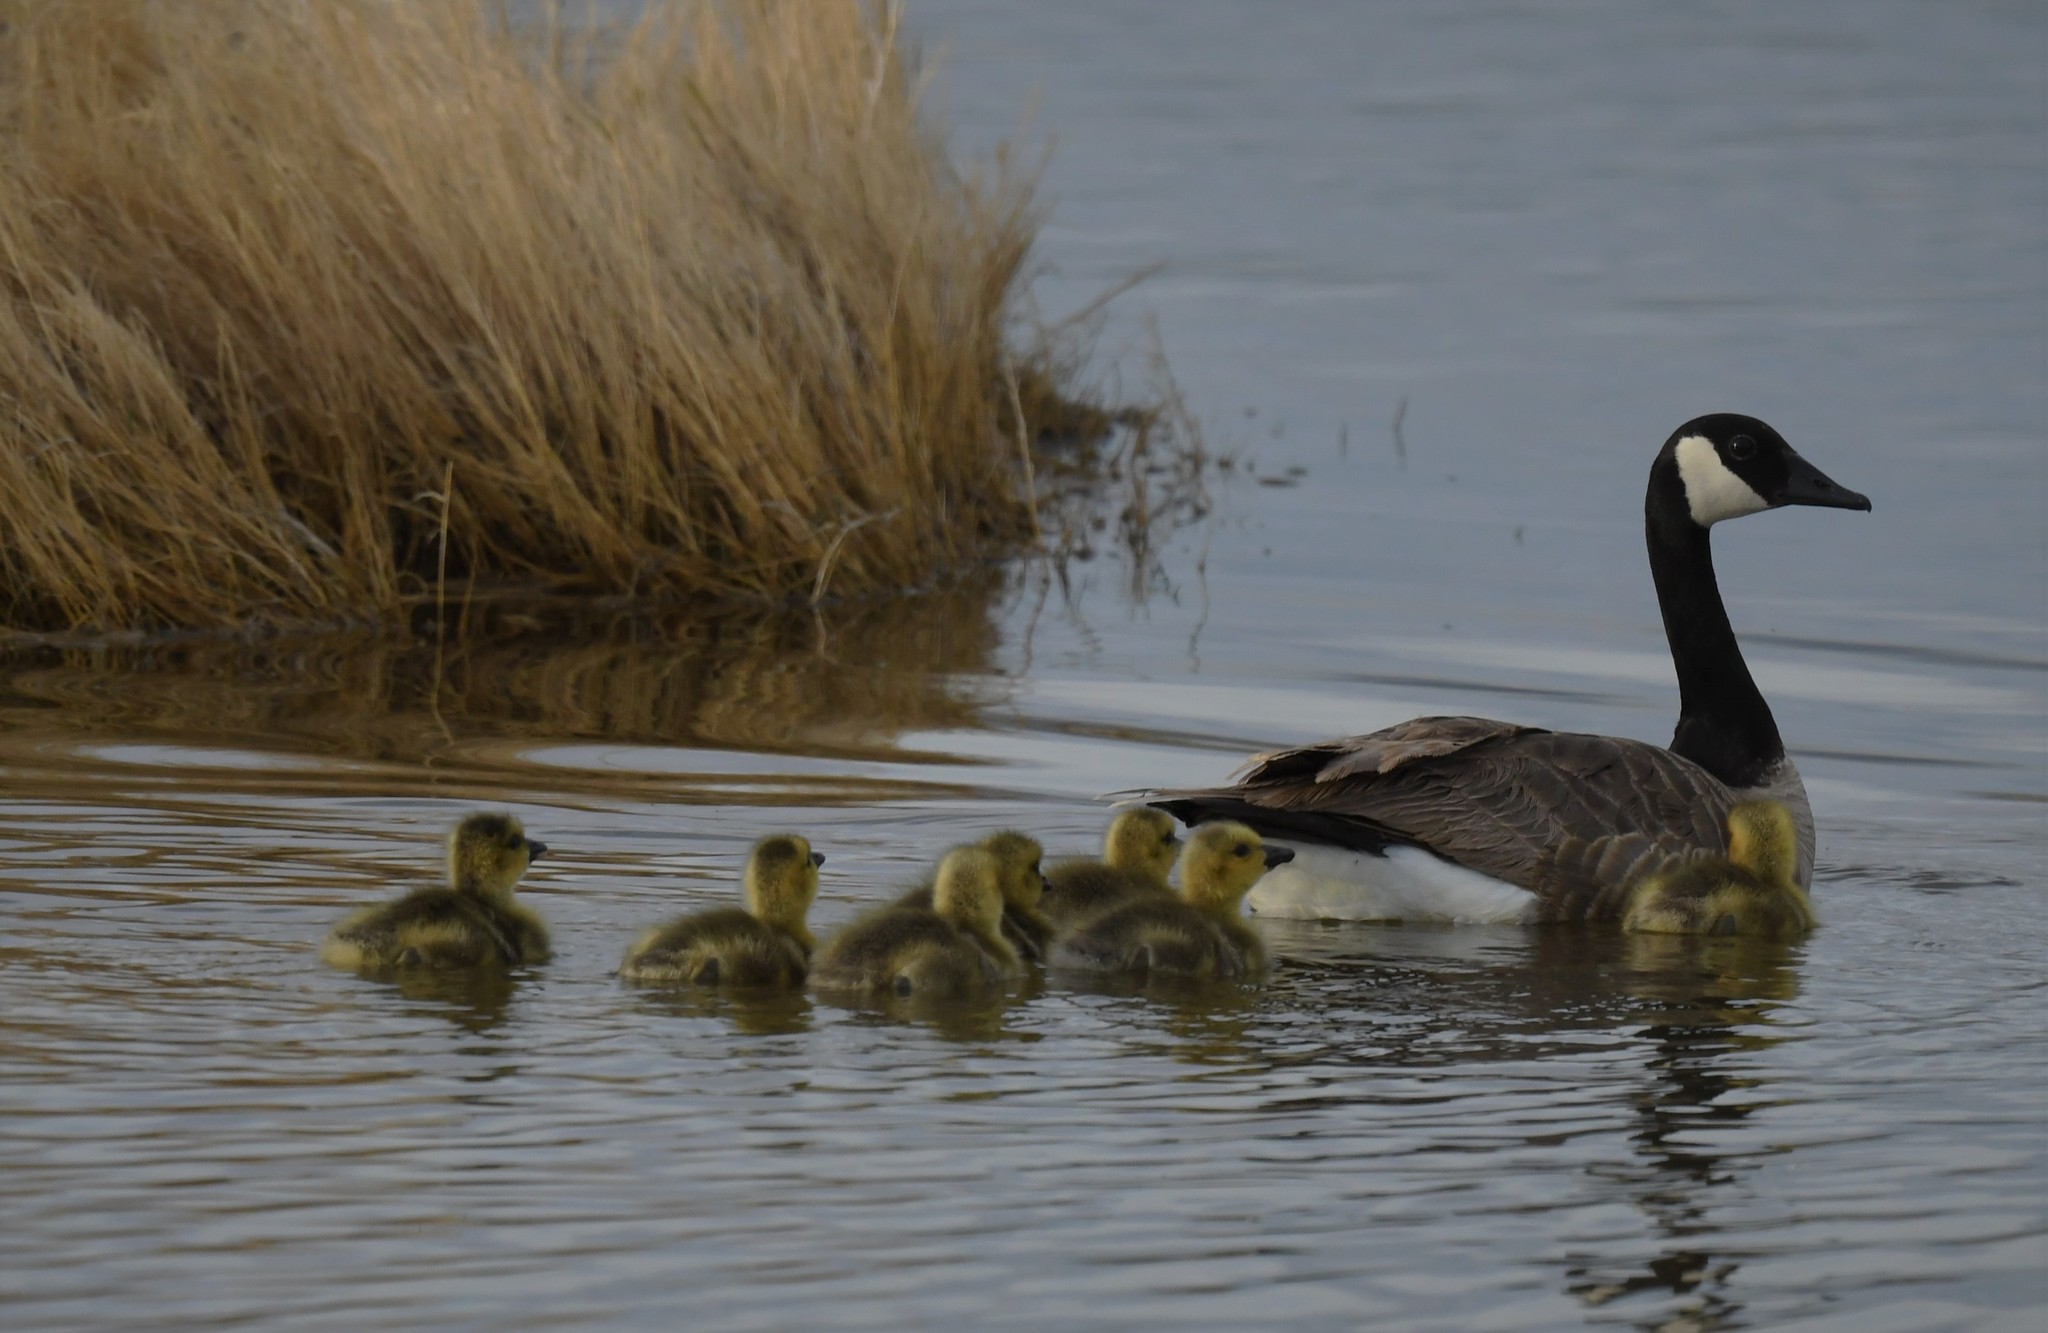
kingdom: Animalia
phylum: Chordata
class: Aves
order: Anseriformes
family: Anatidae
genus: Branta
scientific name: Branta canadensis
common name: Canada goose
